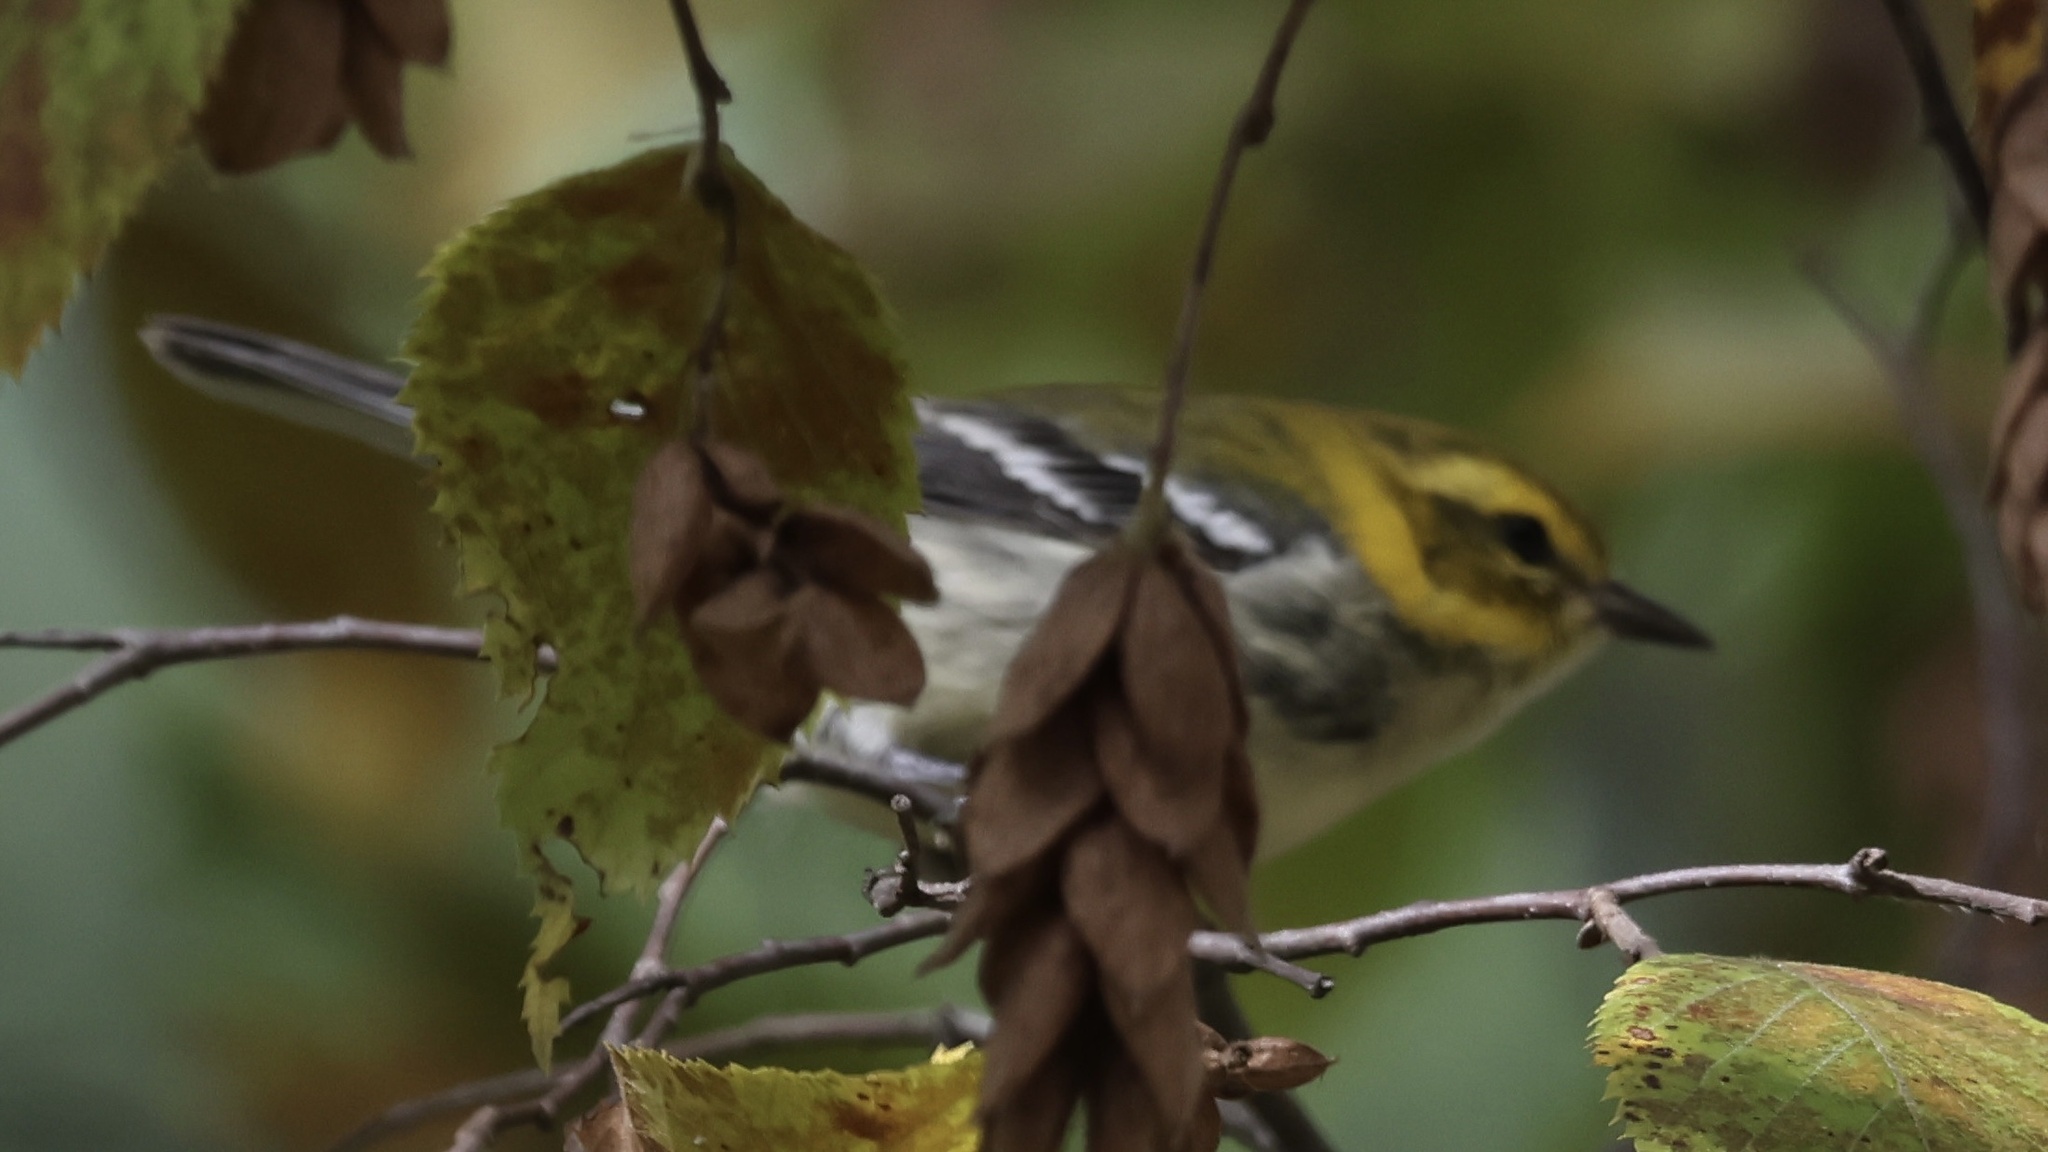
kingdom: Animalia
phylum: Chordata
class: Aves
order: Passeriformes
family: Parulidae
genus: Setophaga
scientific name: Setophaga virens
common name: Black-throated green warbler
